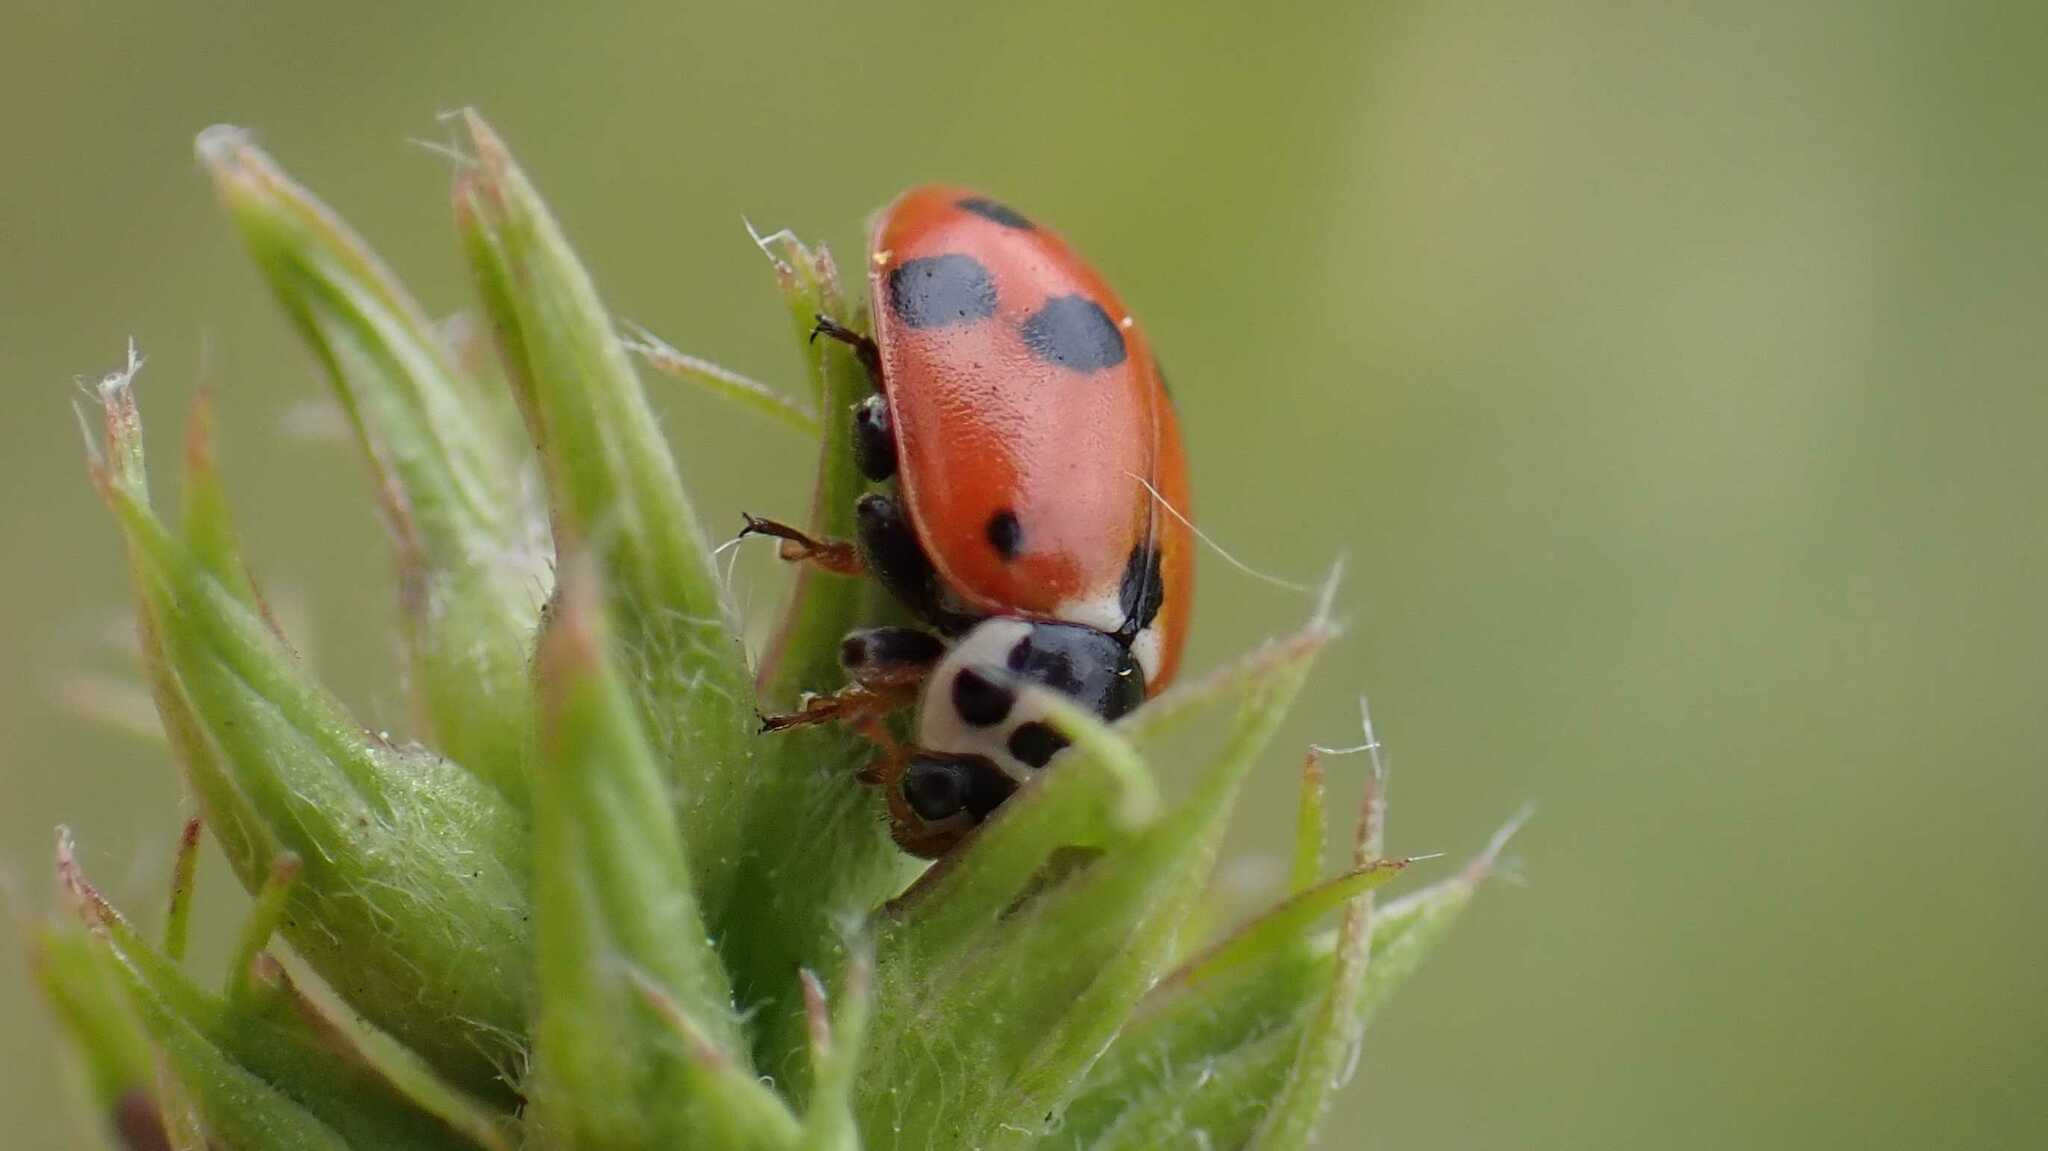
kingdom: Animalia
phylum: Arthropoda
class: Insecta
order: Coleoptera
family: Coccinellidae
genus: Hippodamia
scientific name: Hippodamia variegata
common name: Ladybird beetle
